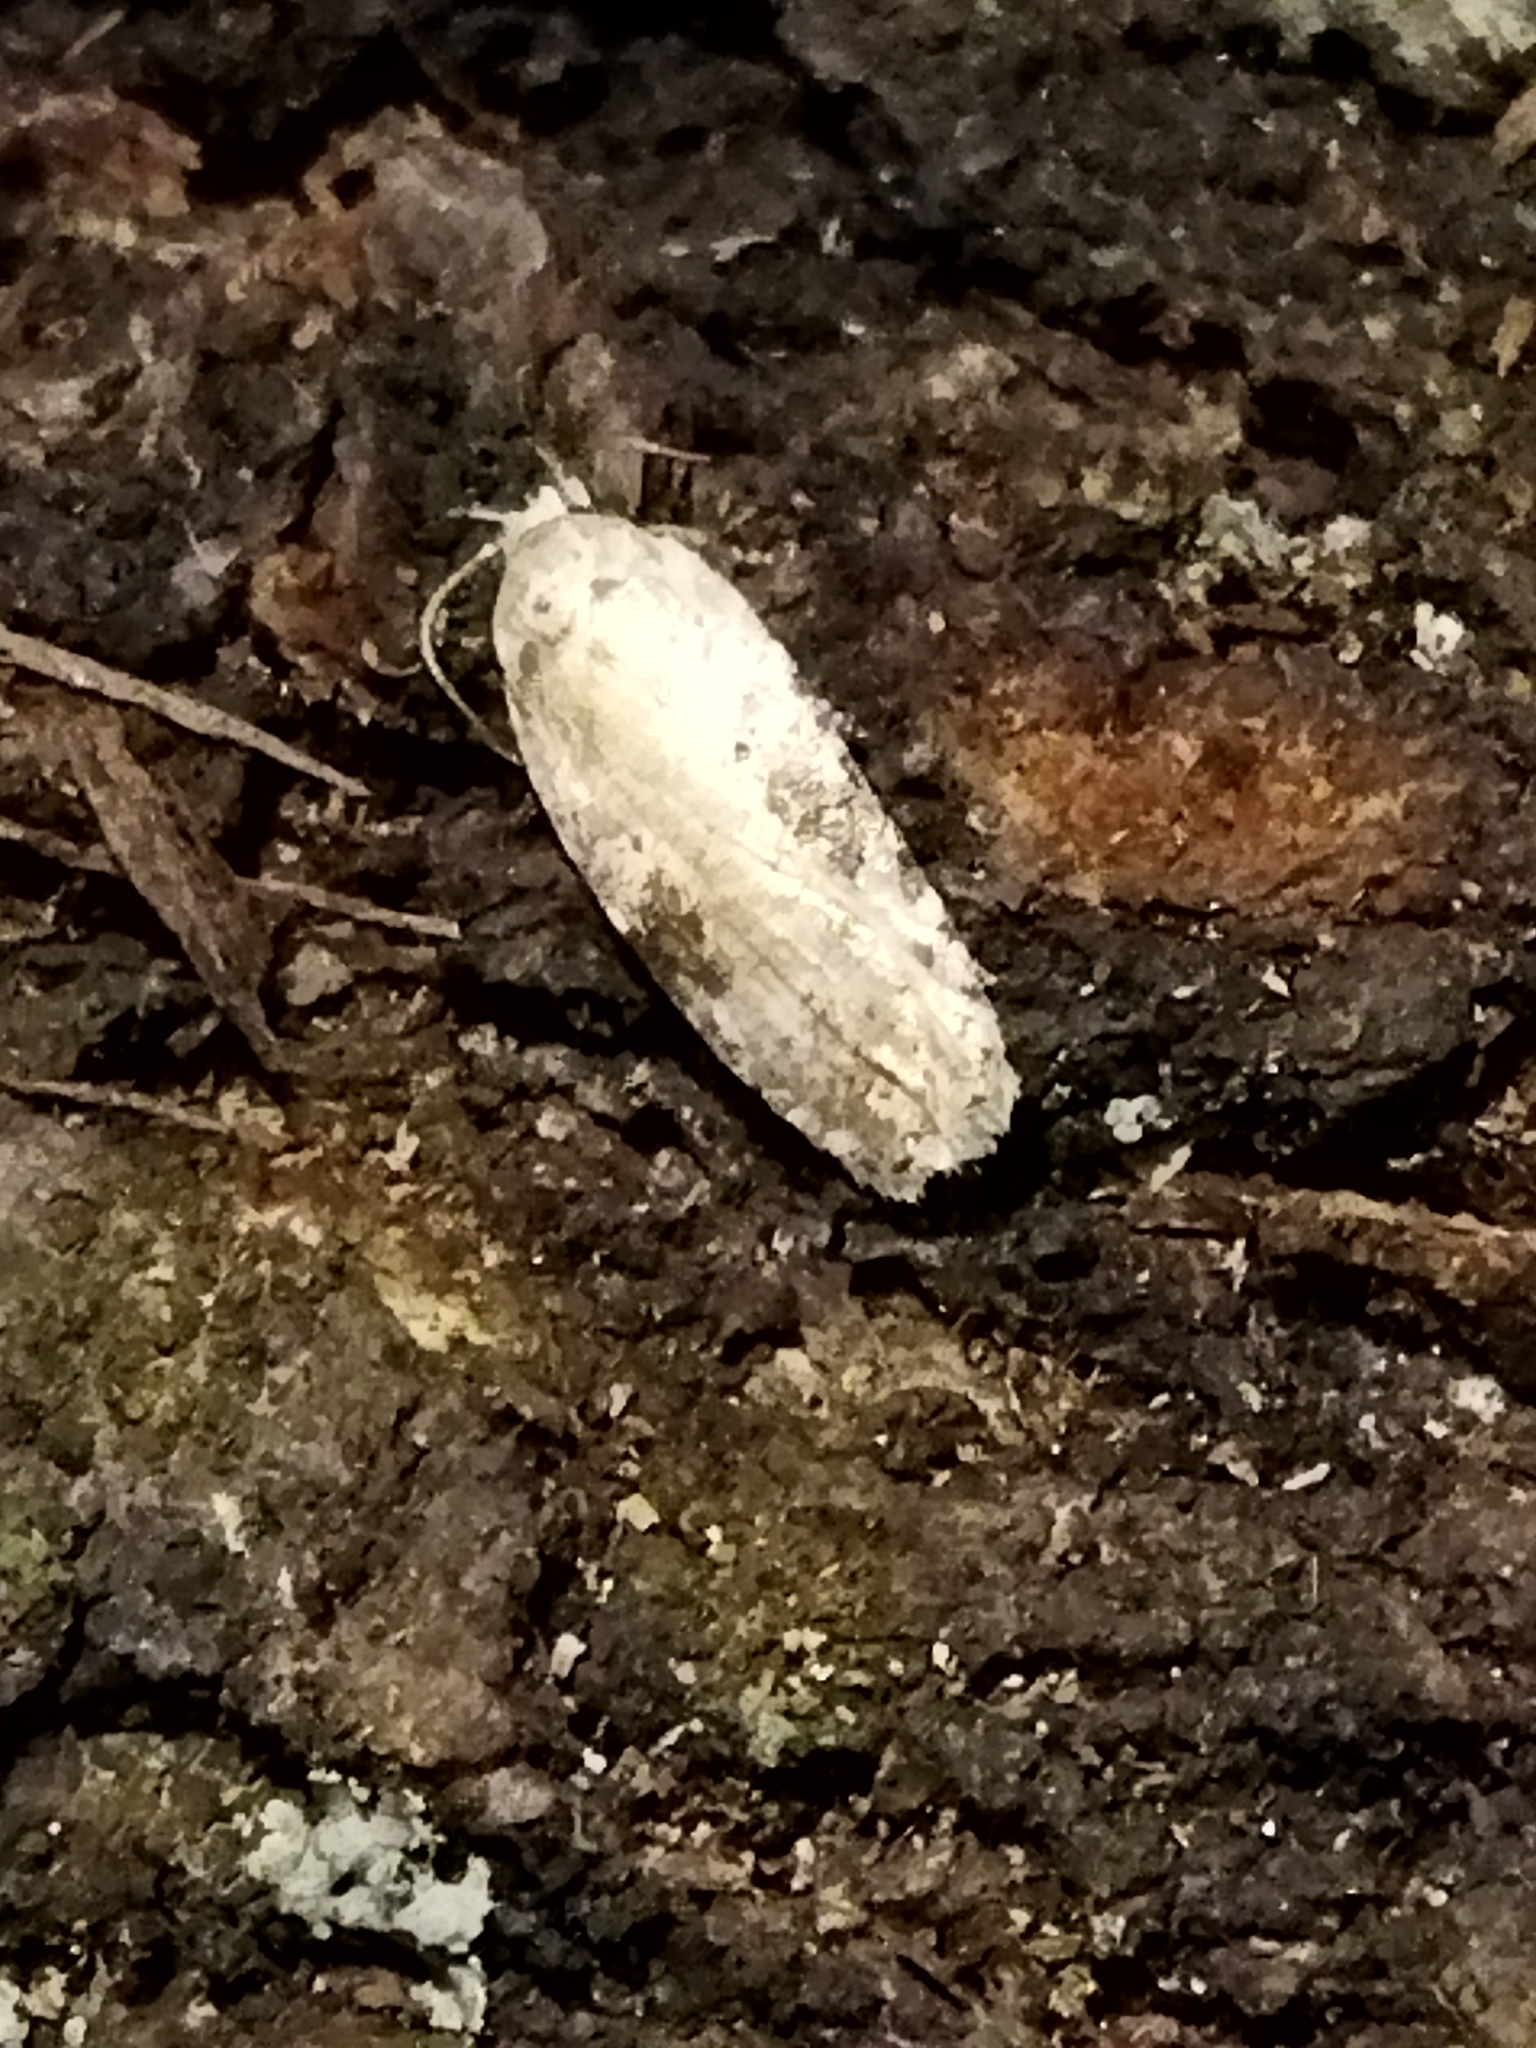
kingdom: Animalia
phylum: Arthropoda
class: Insecta
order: Lepidoptera
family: Depressariidae
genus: Agonopterix
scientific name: Agonopterix alstroemeriana
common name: Moth
